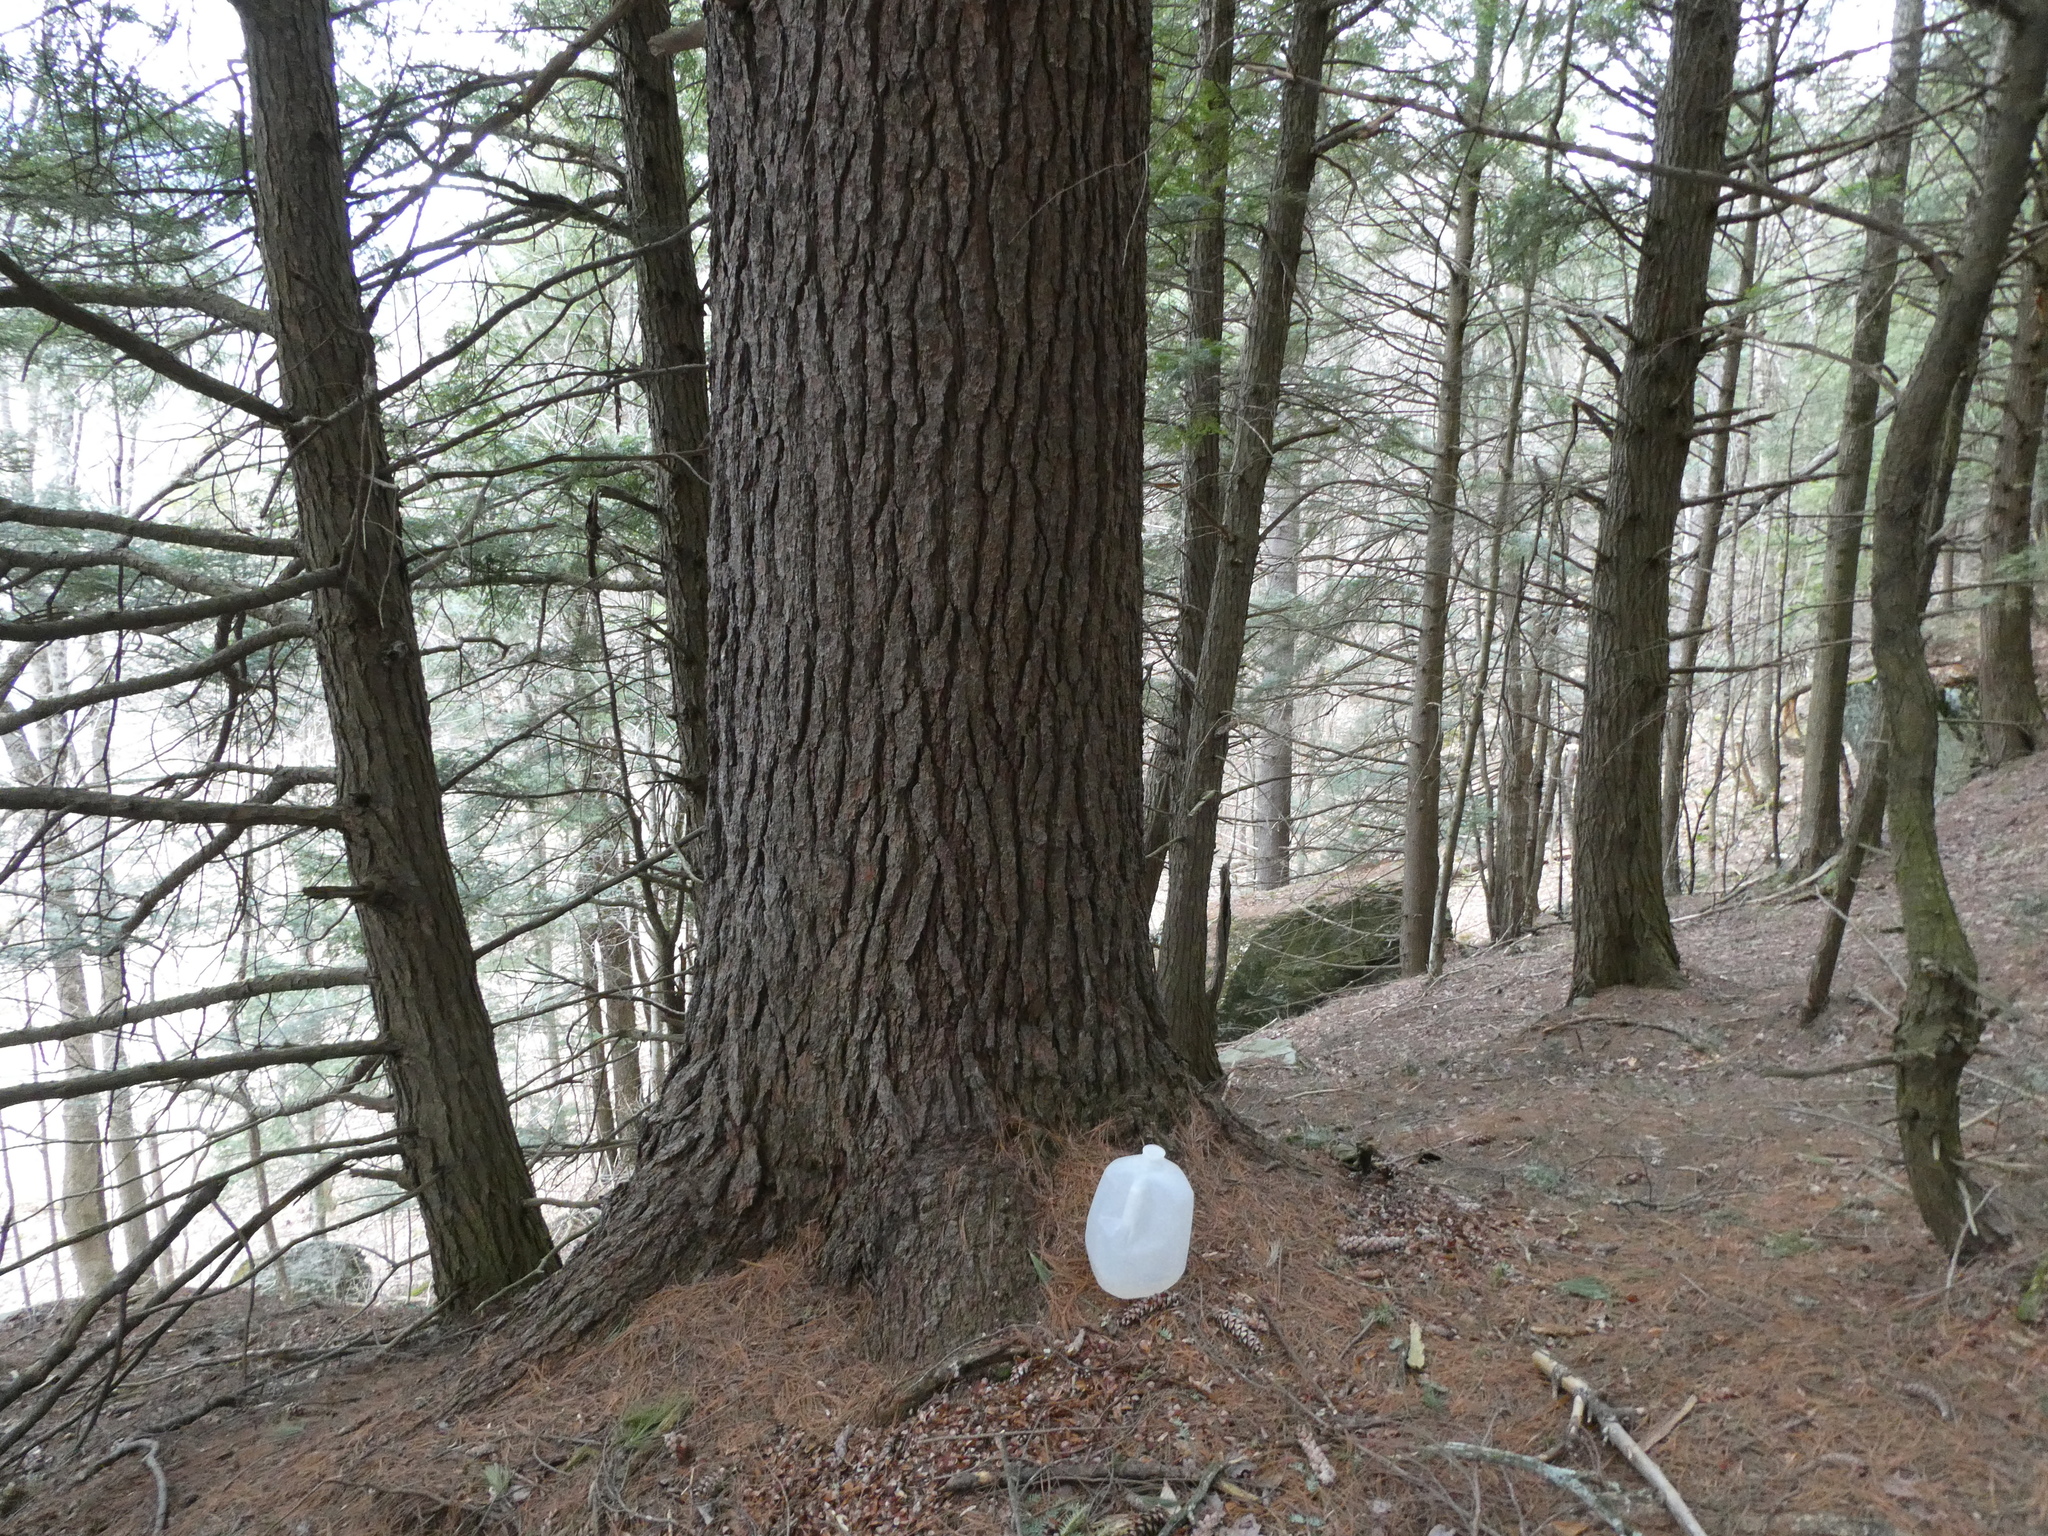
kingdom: Plantae
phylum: Tracheophyta
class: Pinopsida
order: Pinales
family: Pinaceae
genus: Pinus
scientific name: Pinus strobus
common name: Weymouth pine
